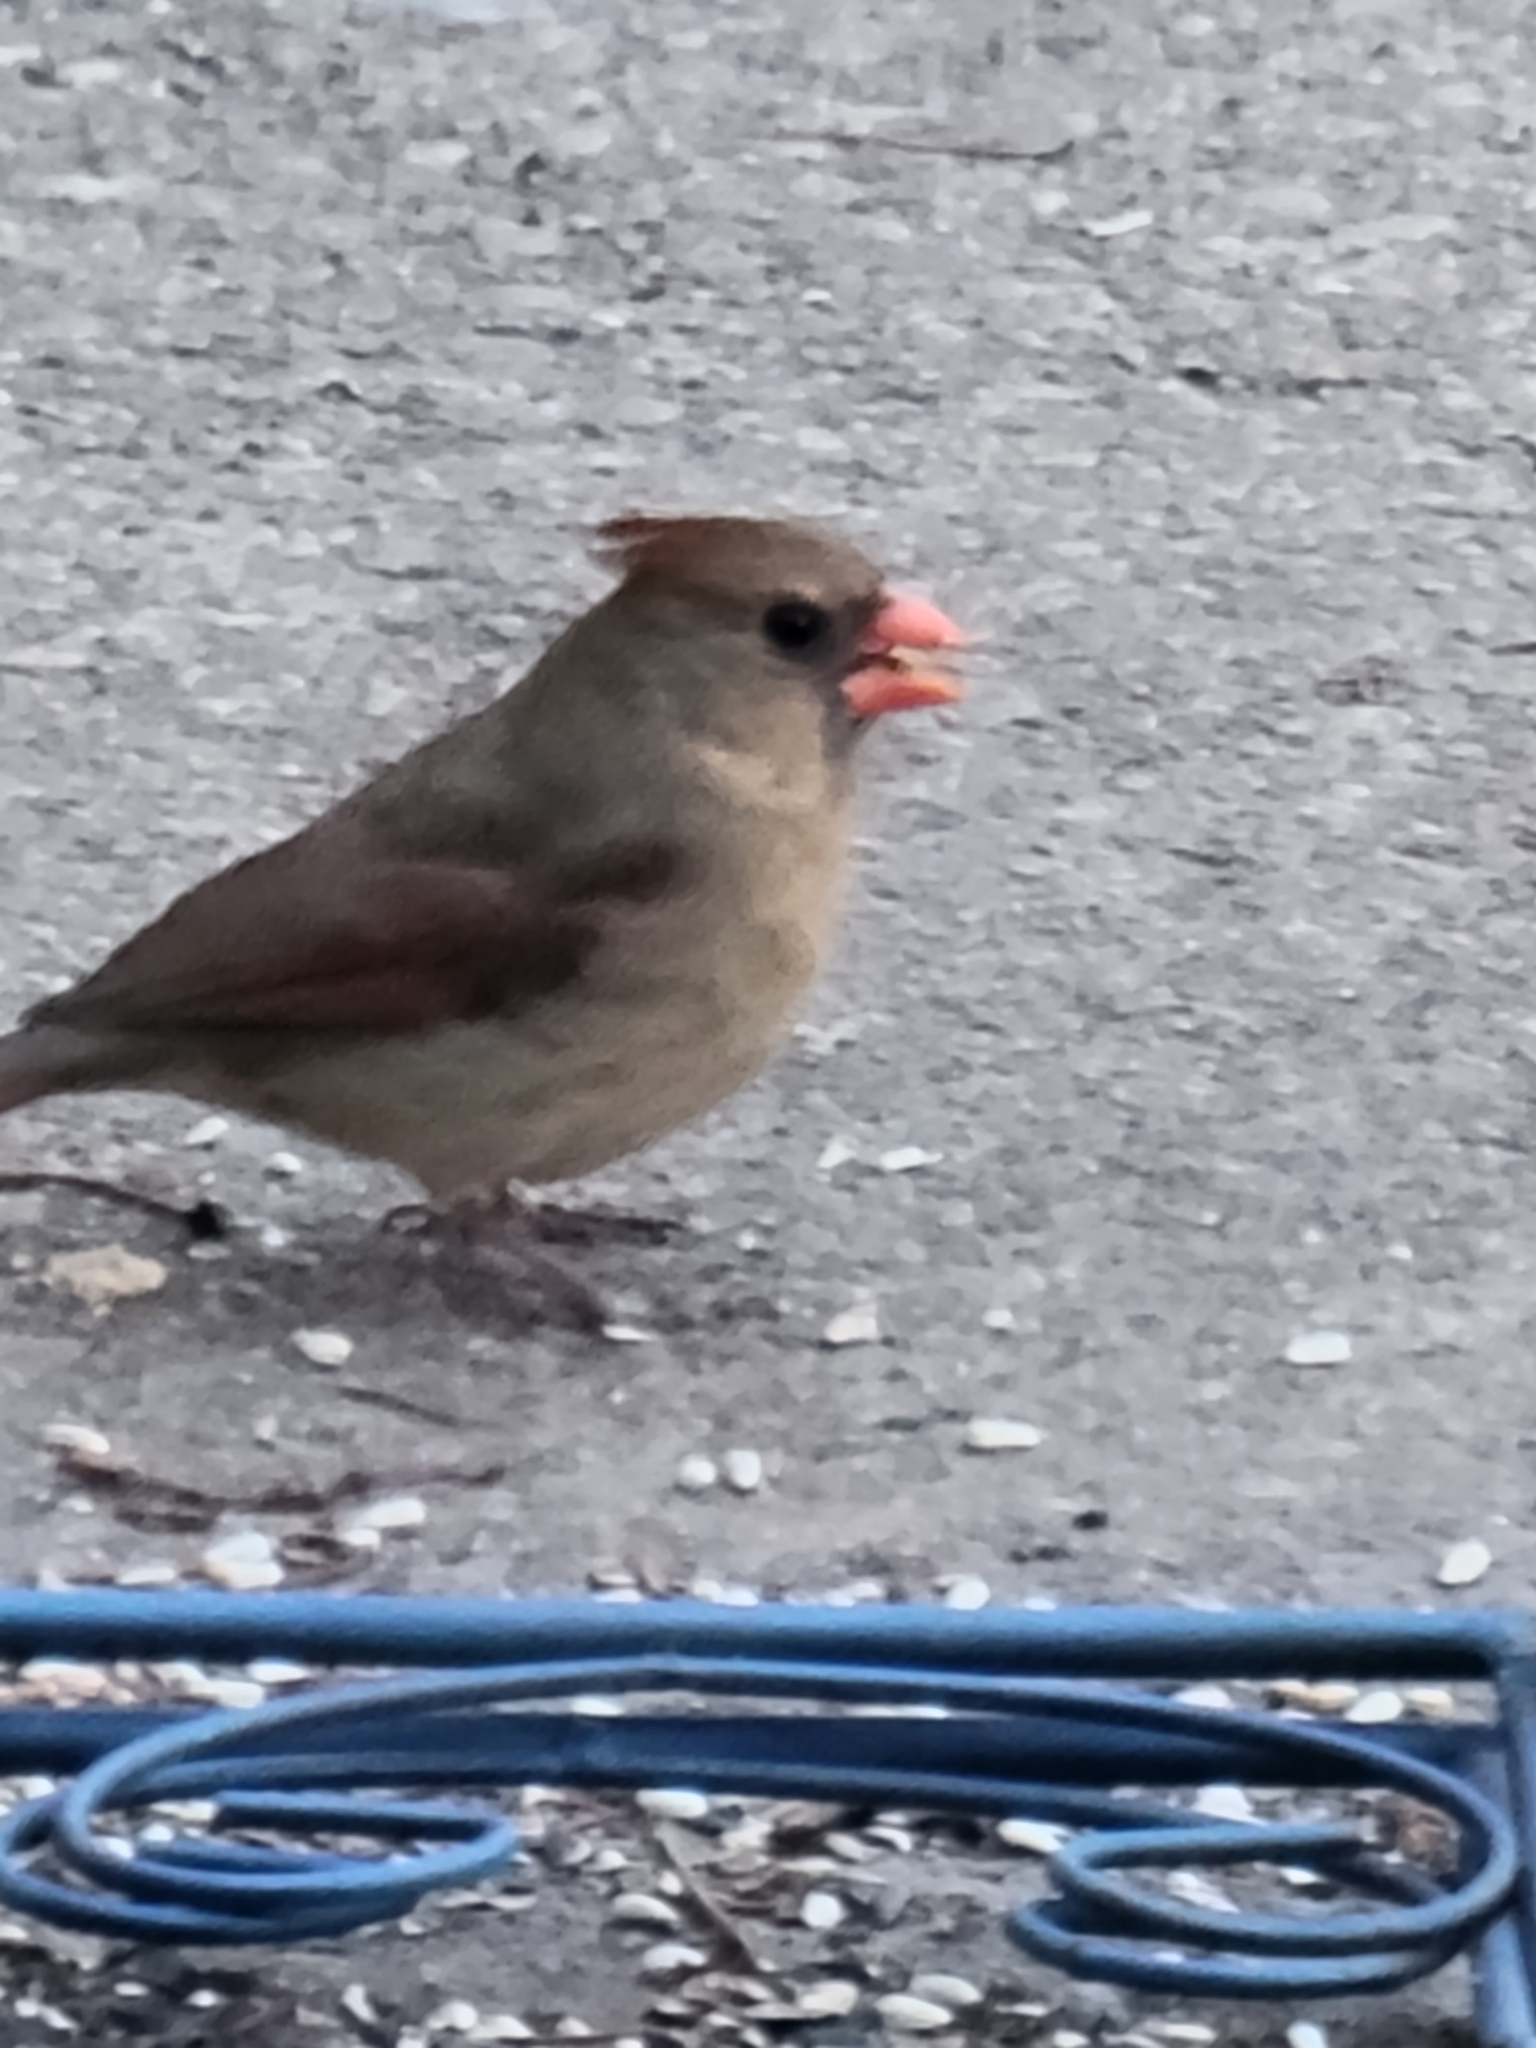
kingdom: Animalia
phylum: Chordata
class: Aves
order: Passeriformes
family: Cardinalidae
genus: Cardinalis
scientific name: Cardinalis cardinalis
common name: Northern cardinal
